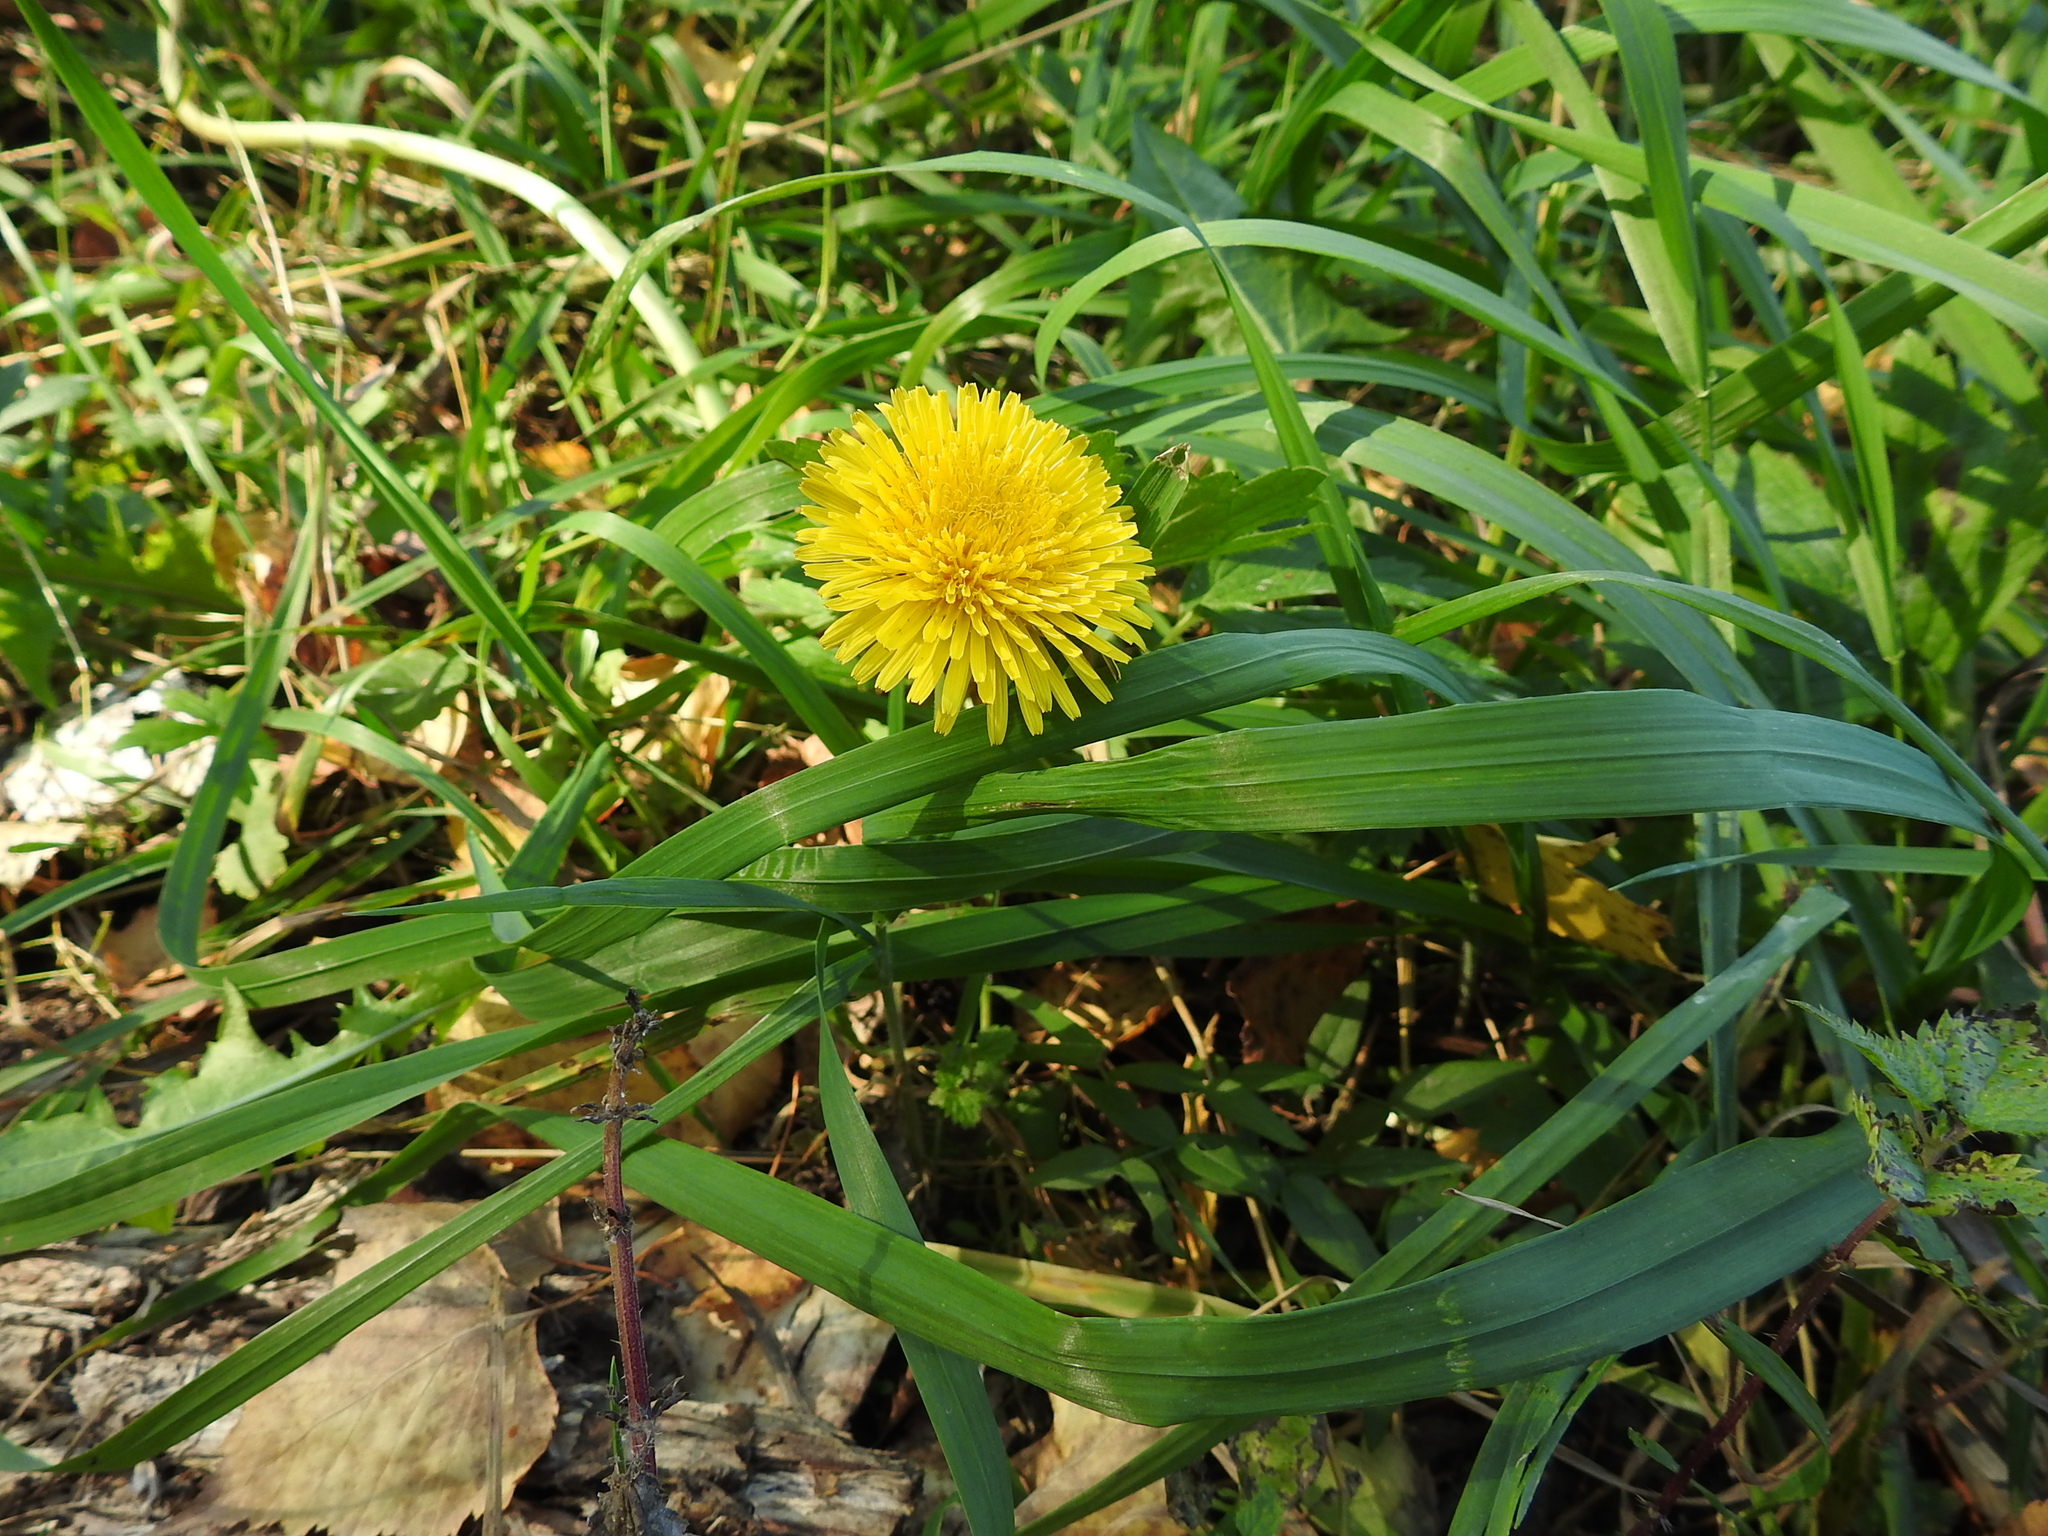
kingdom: Plantae
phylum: Tracheophyta
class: Magnoliopsida
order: Asterales
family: Asteraceae
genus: Taraxacum
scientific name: Taraxacum officinale
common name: Common dandelion
